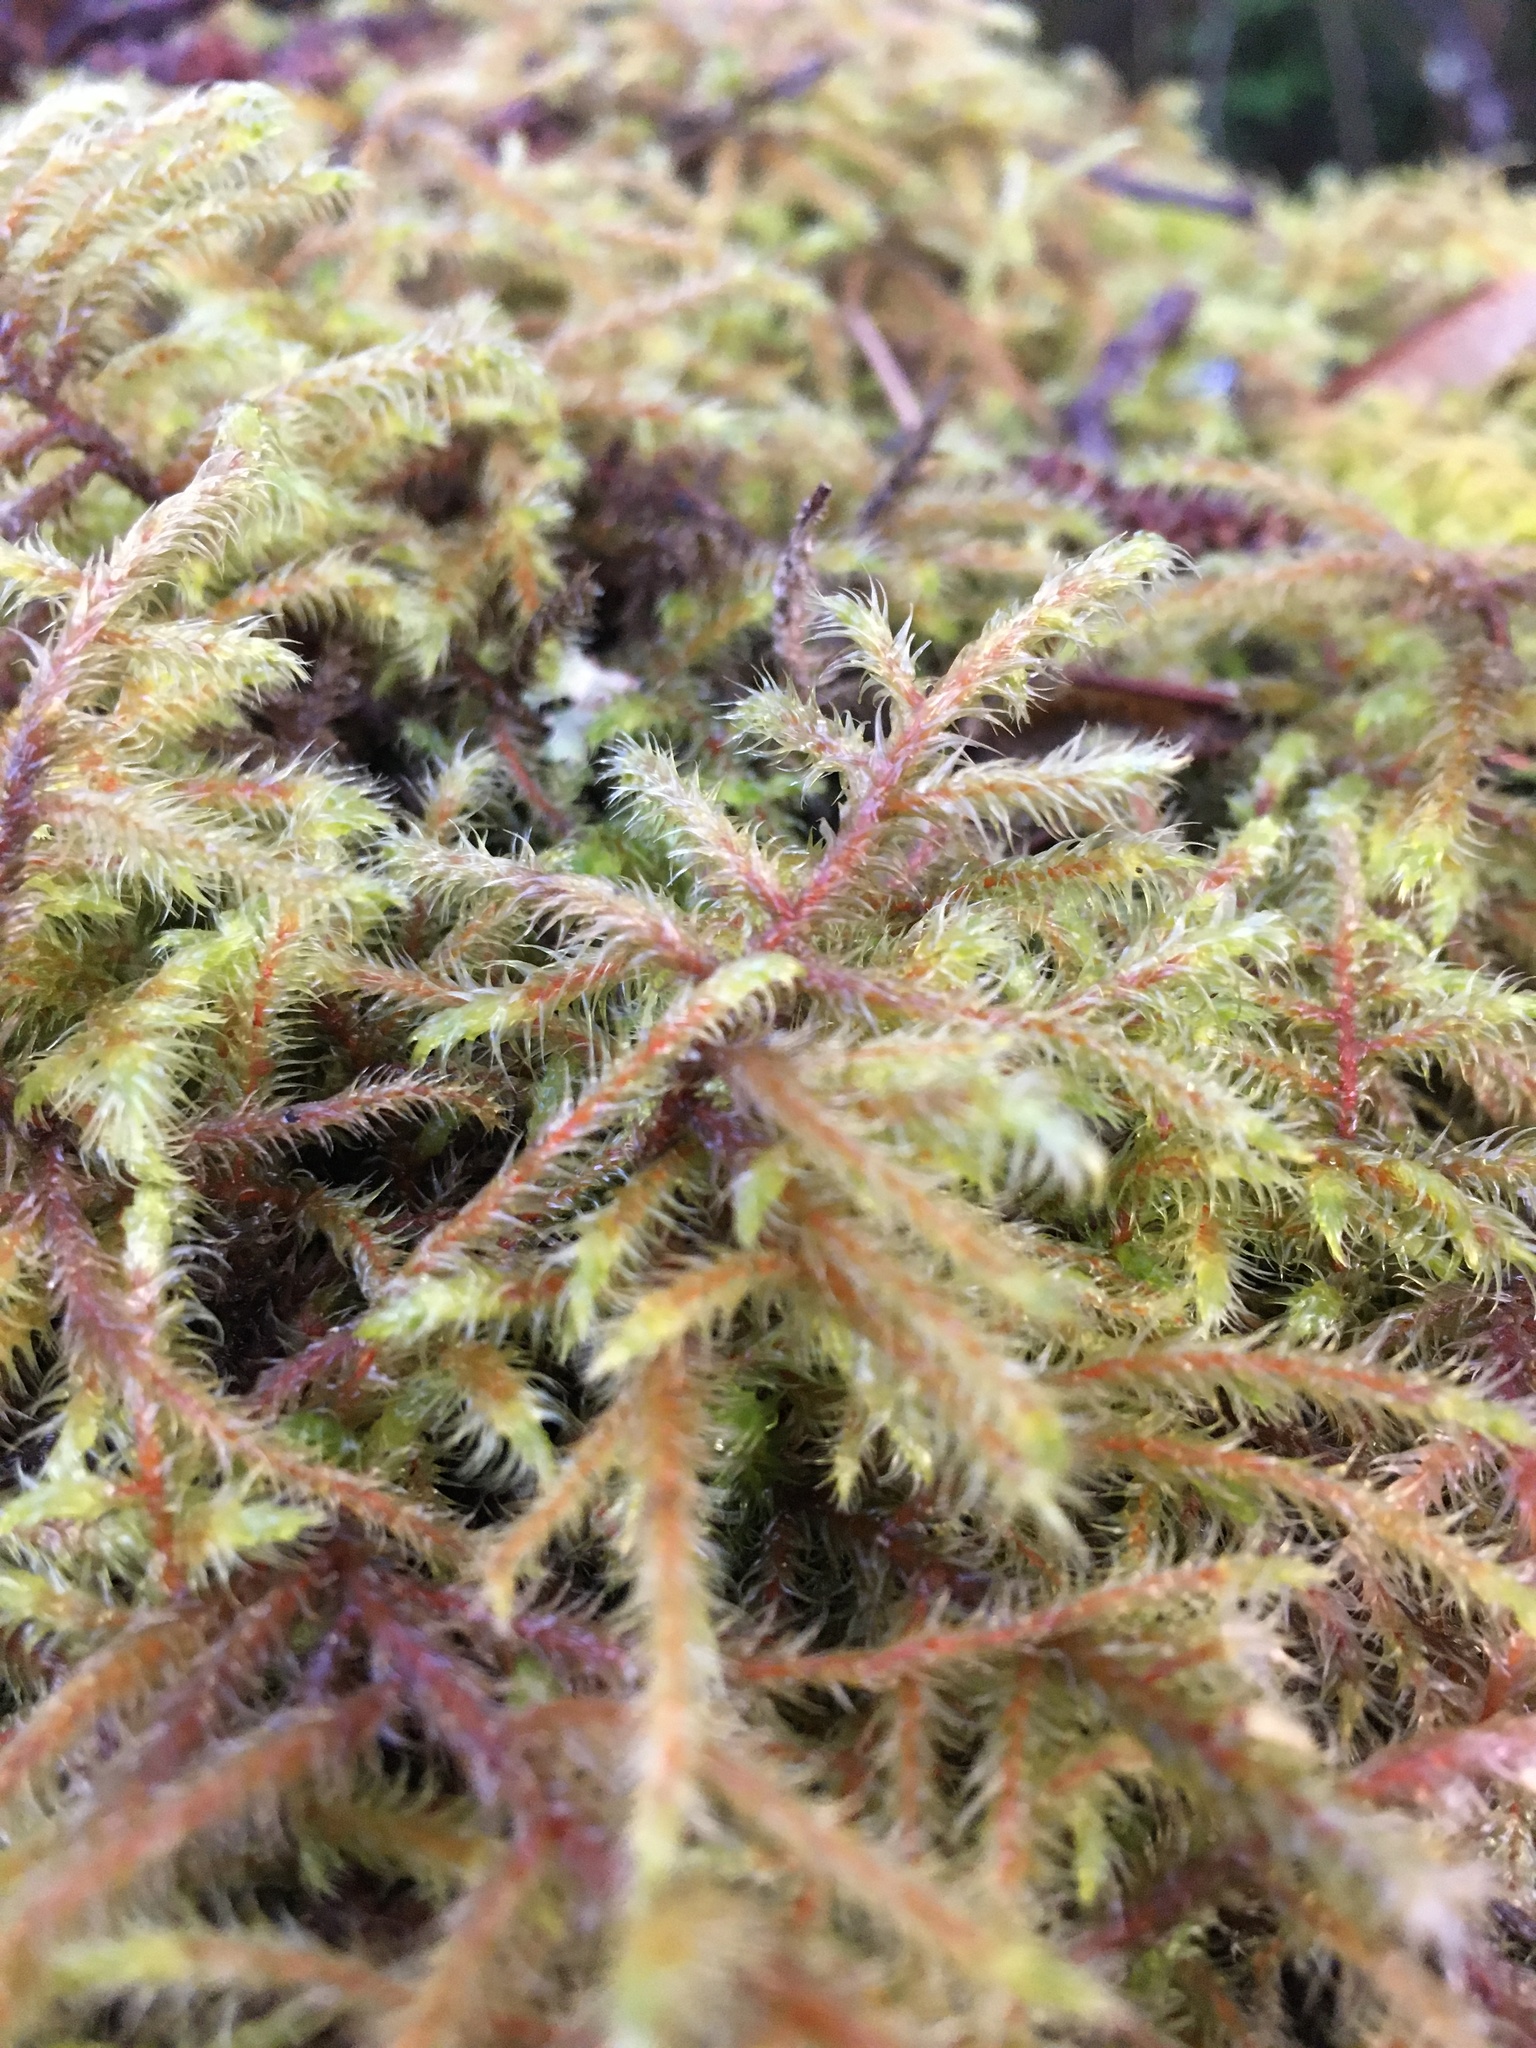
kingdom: Plantae
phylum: Bryophyta
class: Bryopsida
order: Hypnales
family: Hylocomiaceae
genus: Rhytidiadelphus
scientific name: Rhytidiadelphus loreus
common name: Lanky moss
